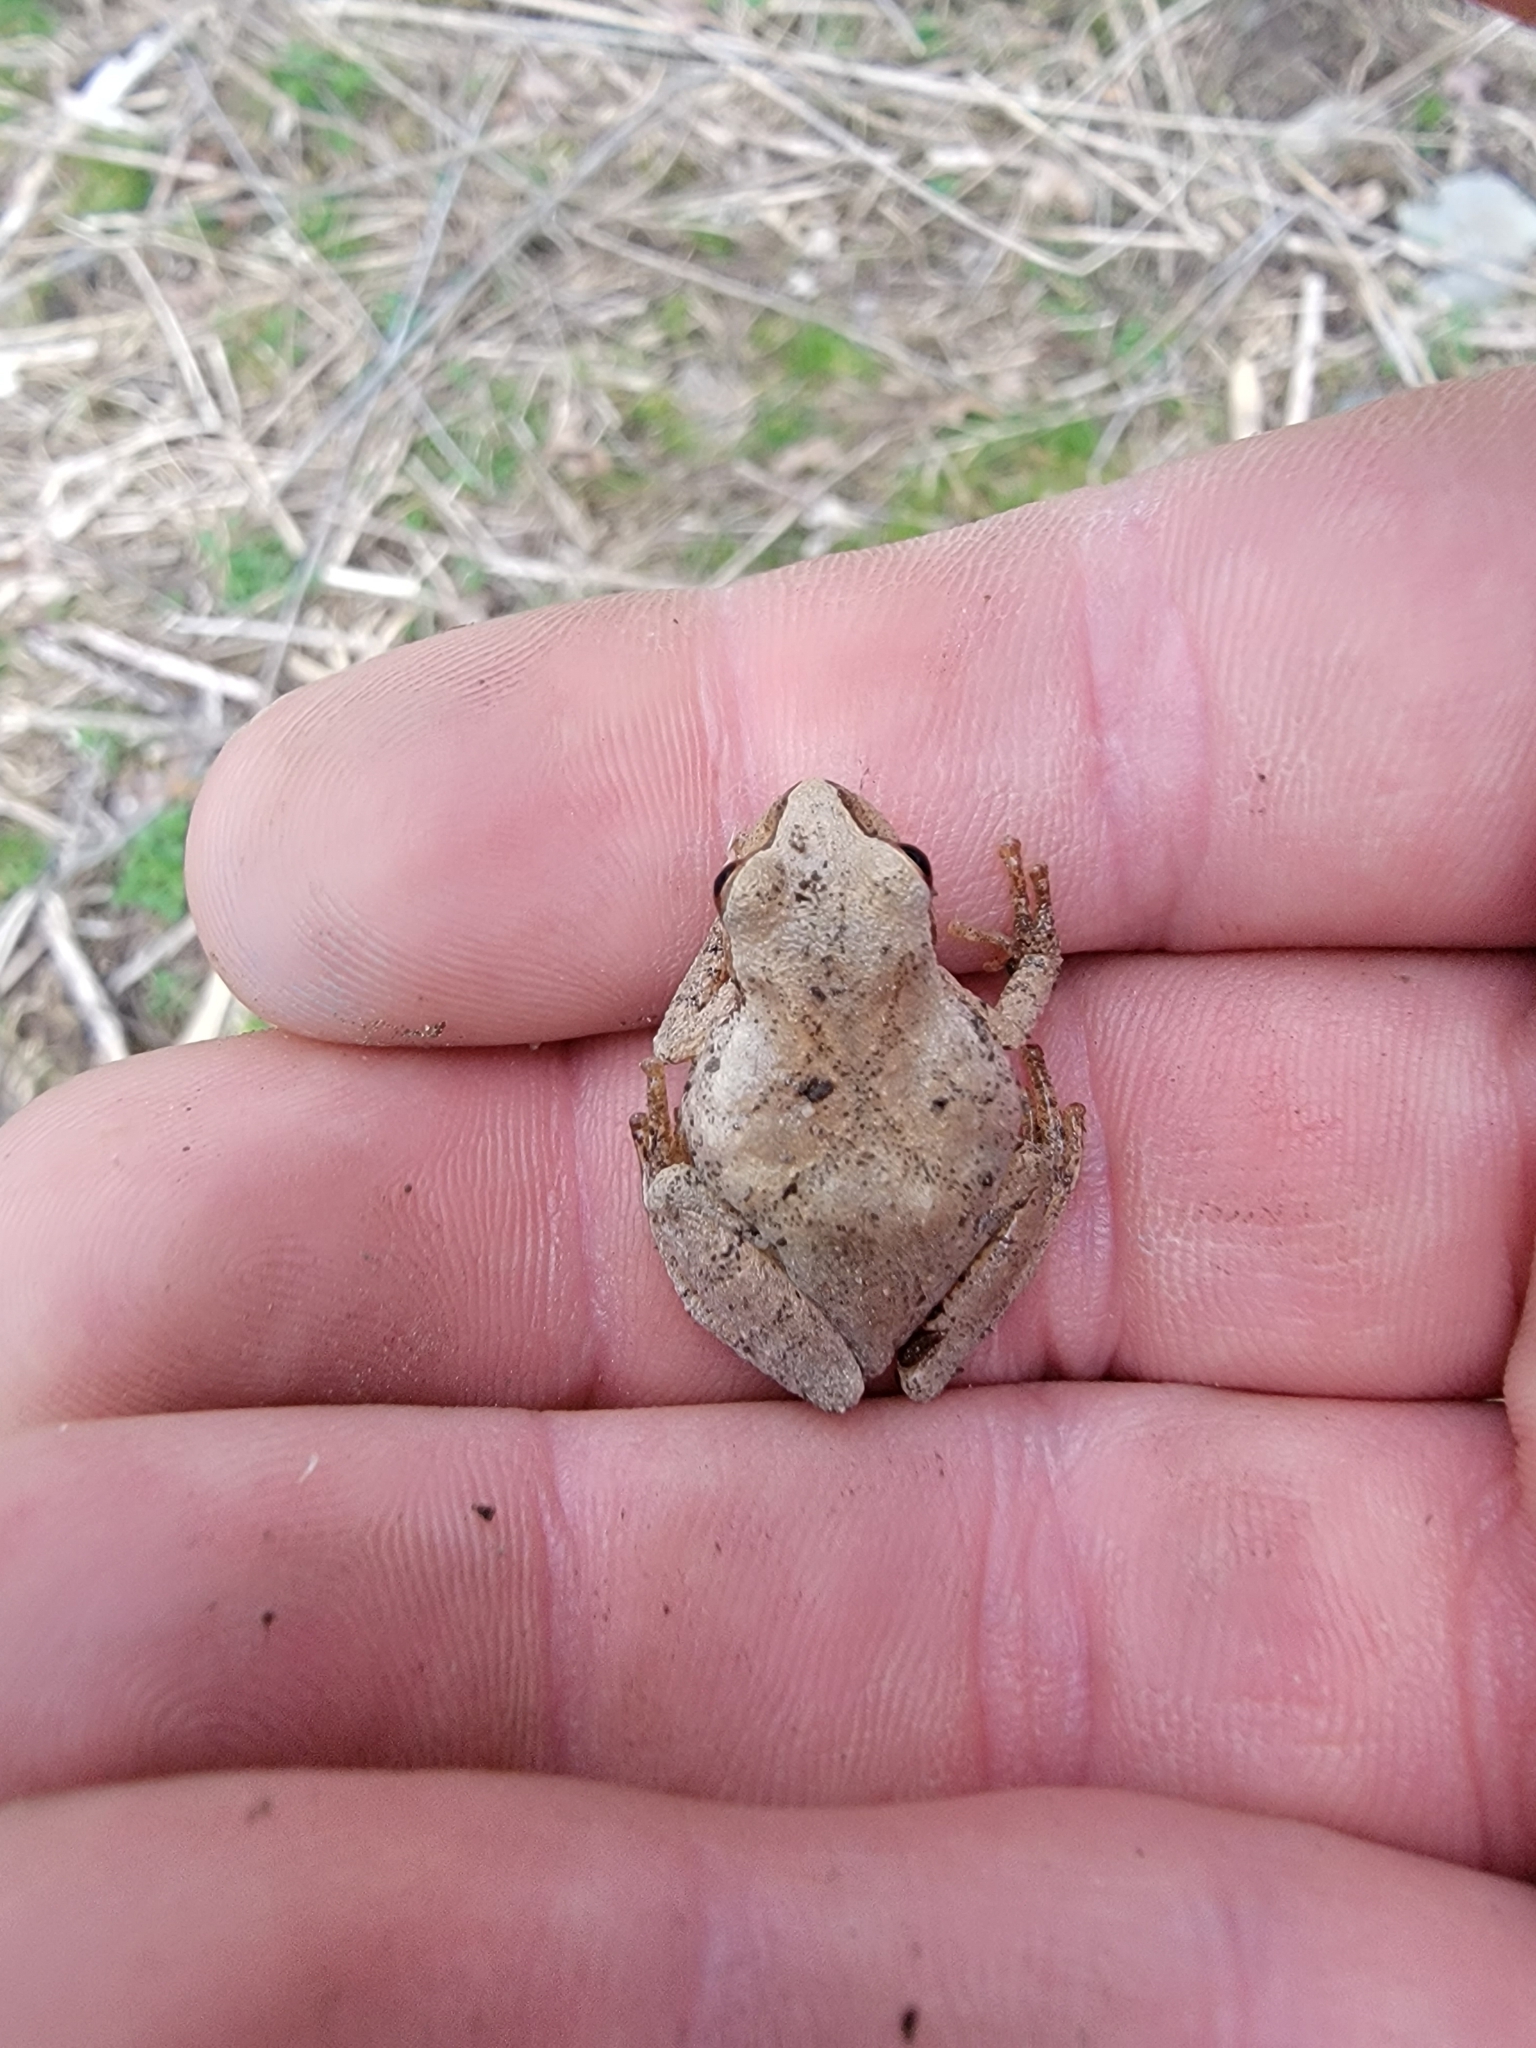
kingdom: Animalia
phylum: Chordata
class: Amphibia
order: Anura
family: Hylidae
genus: Pseudacris
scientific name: Pseudacris crucifer
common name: Spring peeper
